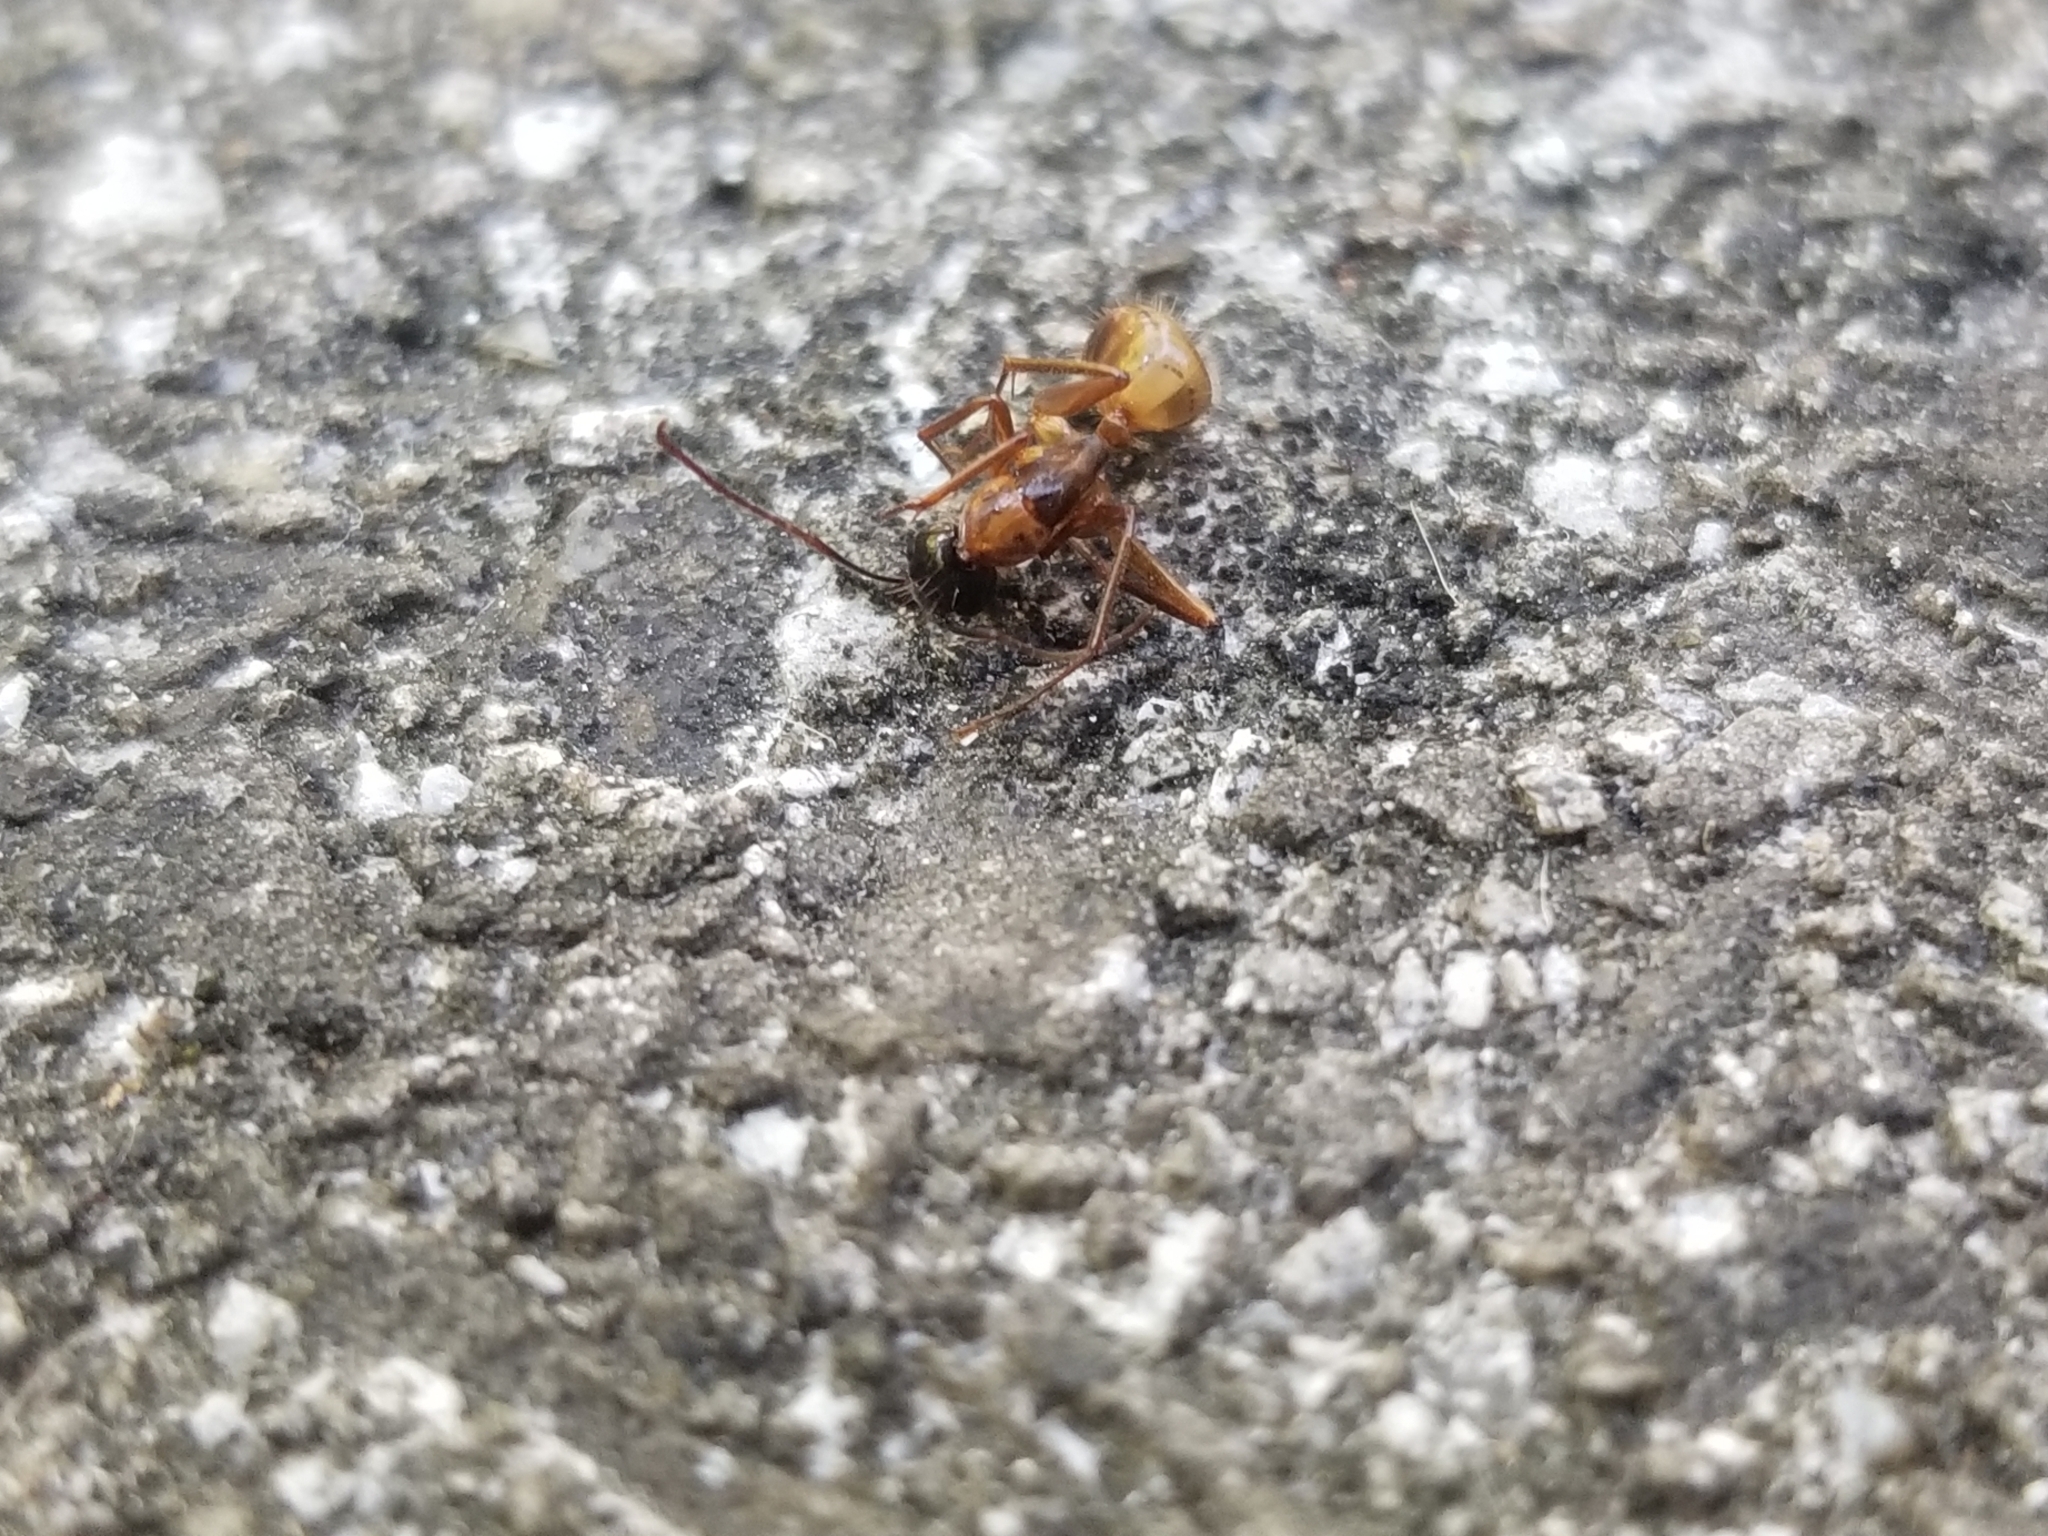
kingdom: Animalia
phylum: Arthropoda
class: Insecta
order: Hymenoptera
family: Formicidae
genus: Camponotus
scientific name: Camponotus americanus
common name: American carpenter ant
